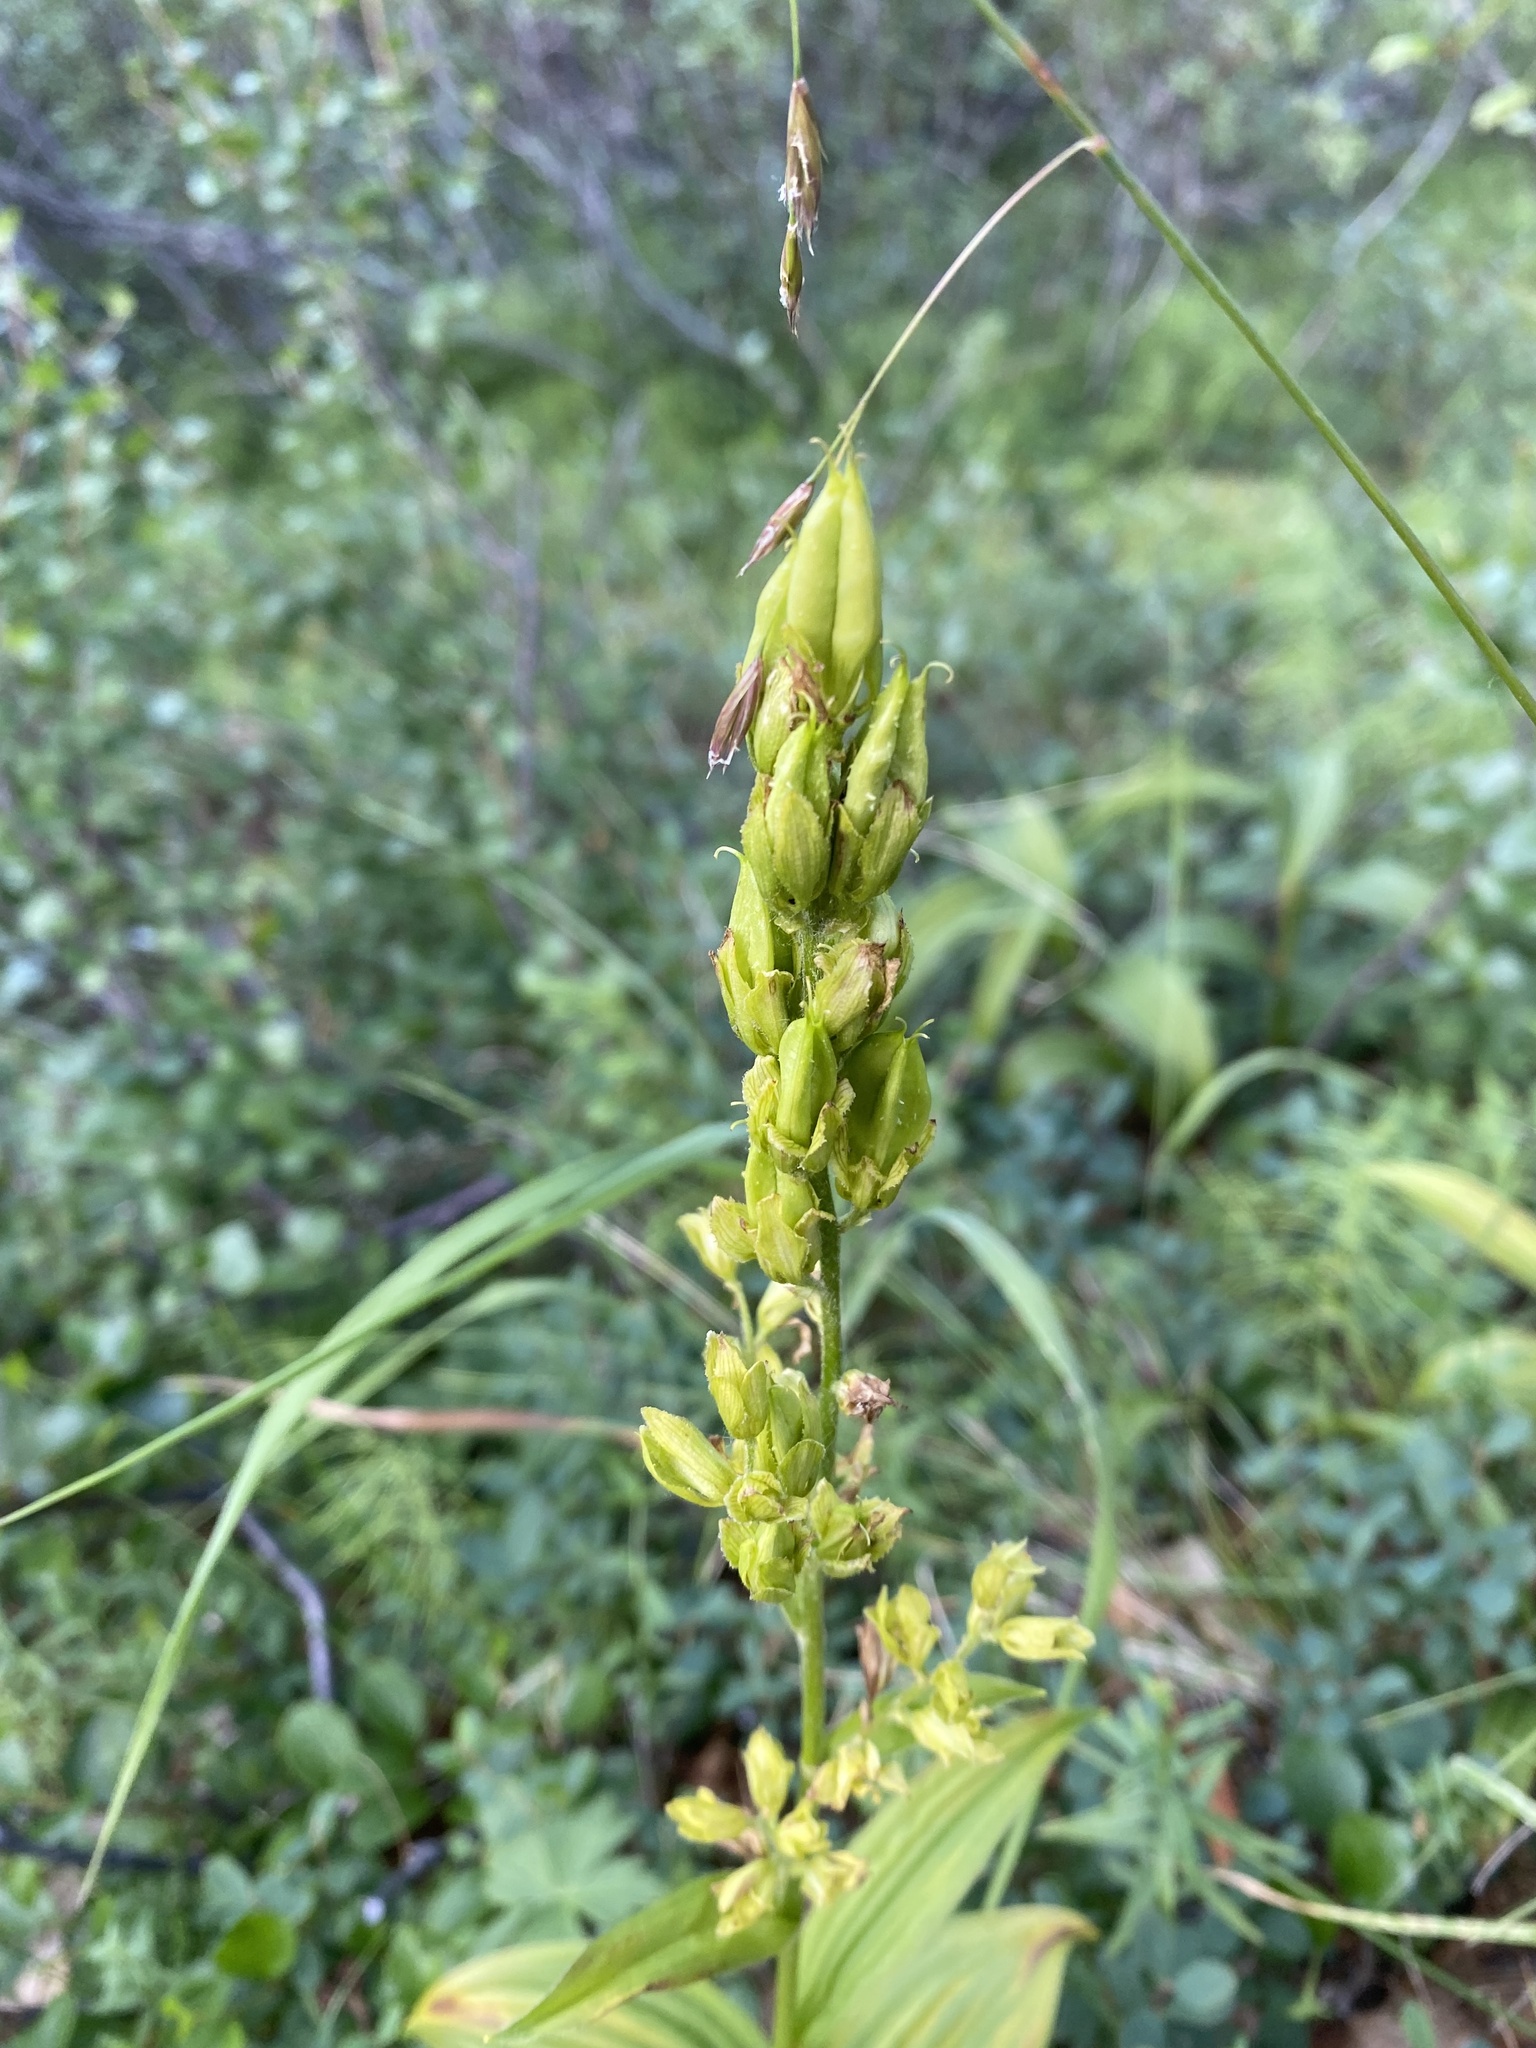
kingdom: Plantae
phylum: Tracheophyta
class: Liliopsida
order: Liliales
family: Melanthiaceae
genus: Veratrum
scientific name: Veratrum lobelianum
